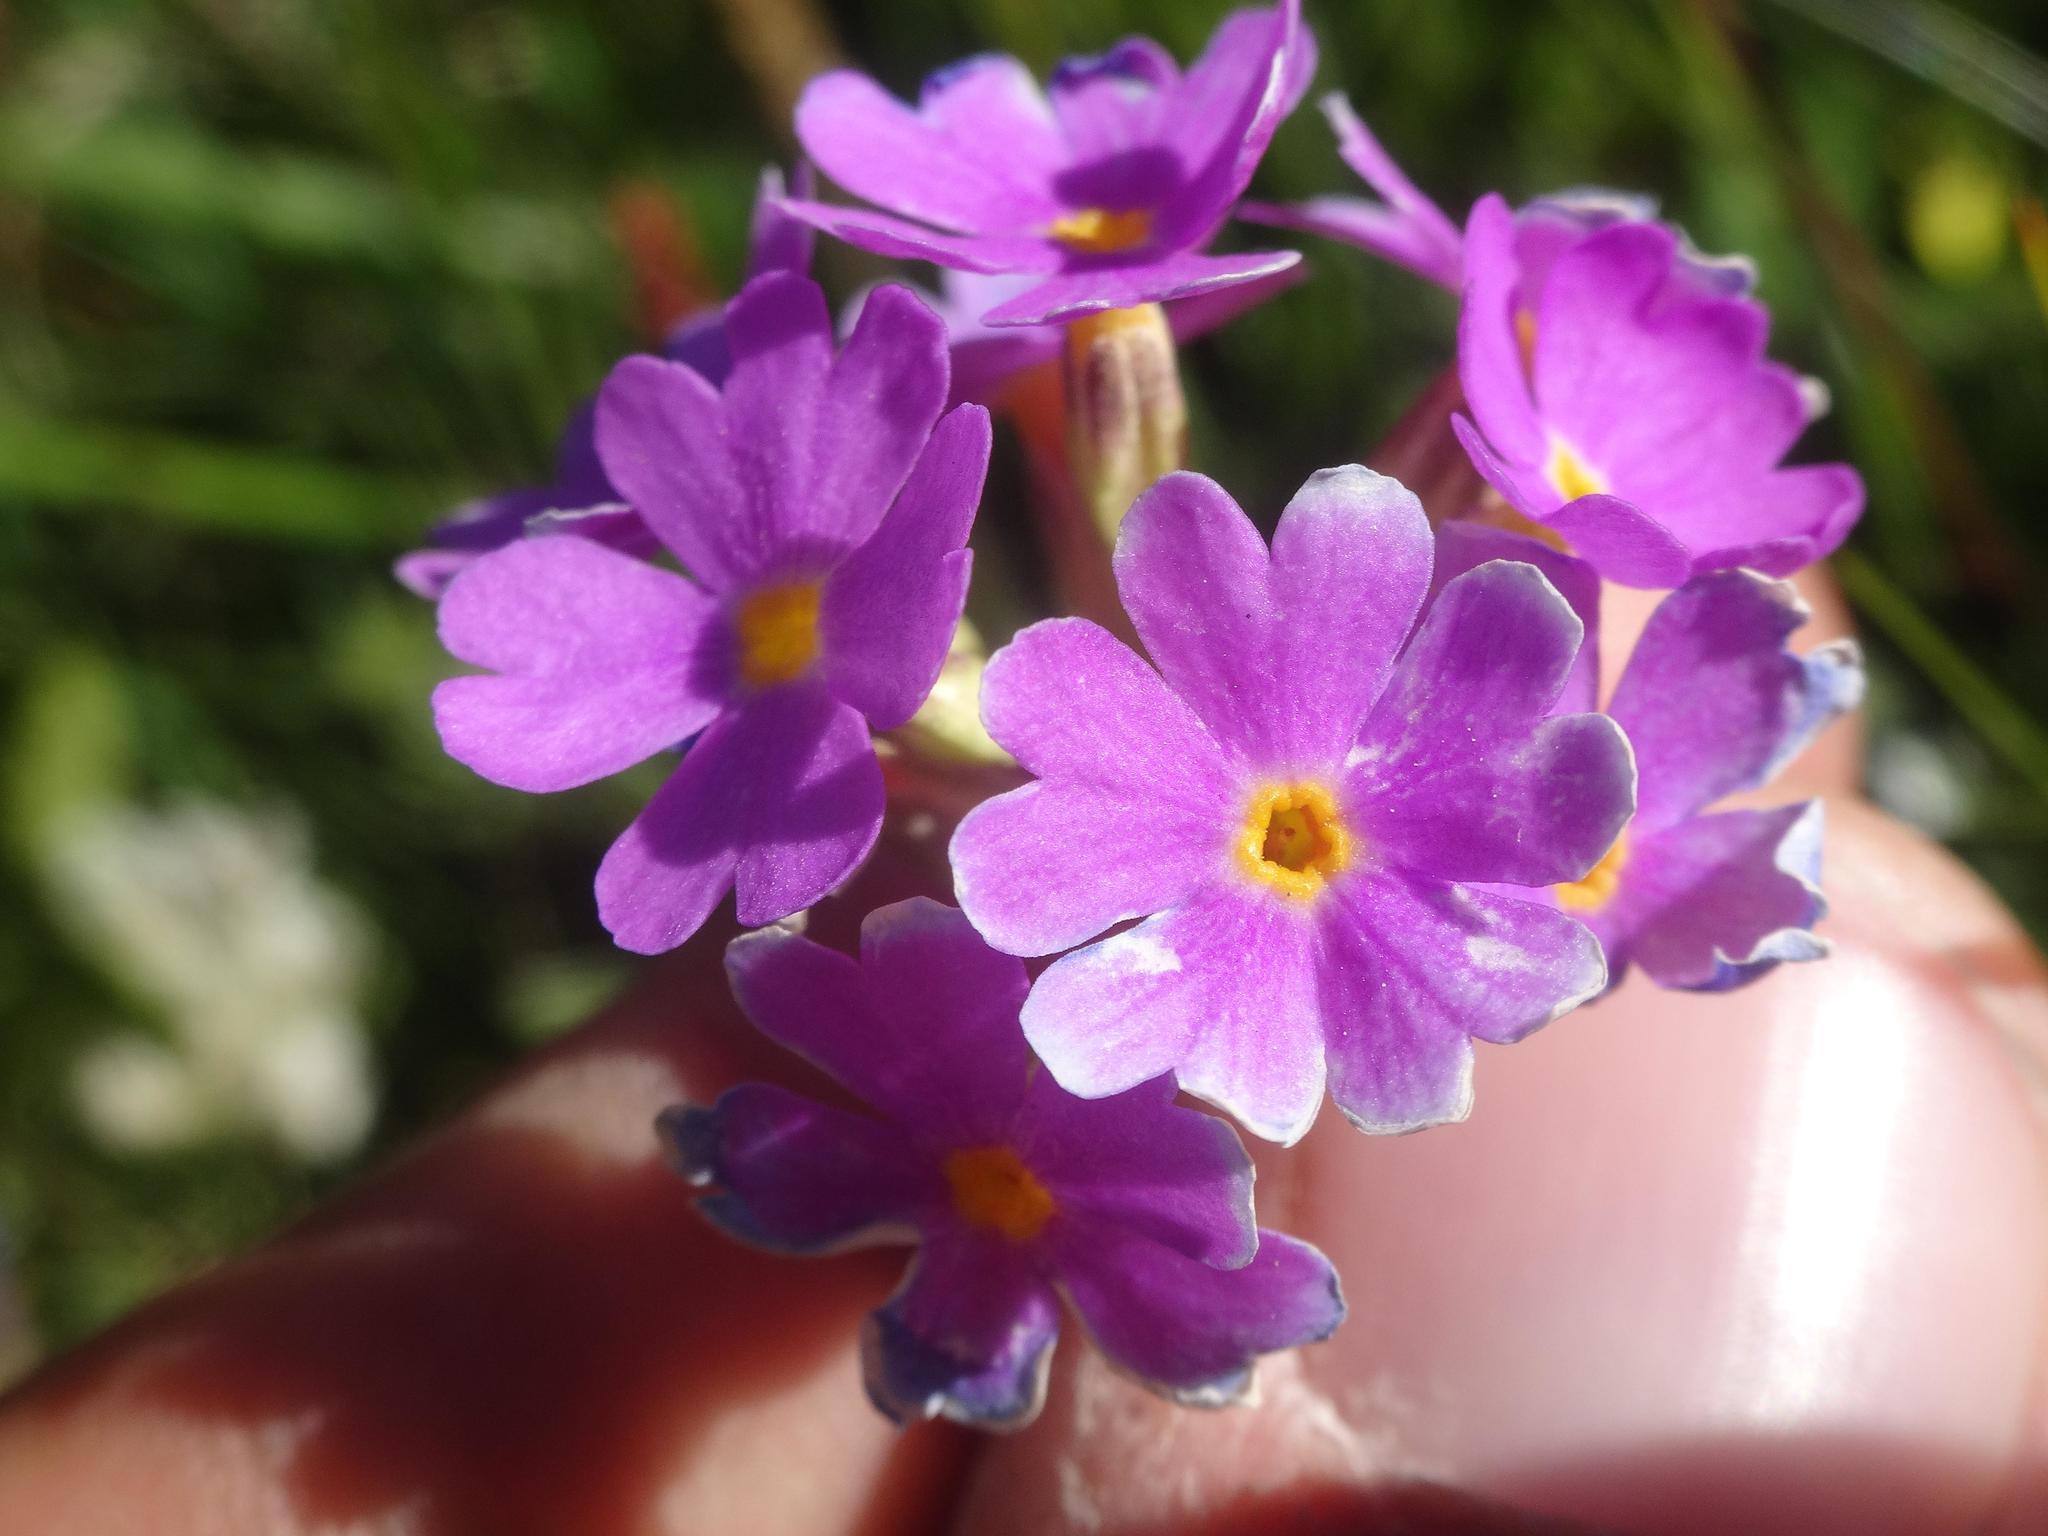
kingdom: Plantae
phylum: Tracheophyta
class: Magnoliopsida
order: Ericales
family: Primulaceae
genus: Primula
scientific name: Primula farinosa
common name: Bird's-eye primrose
